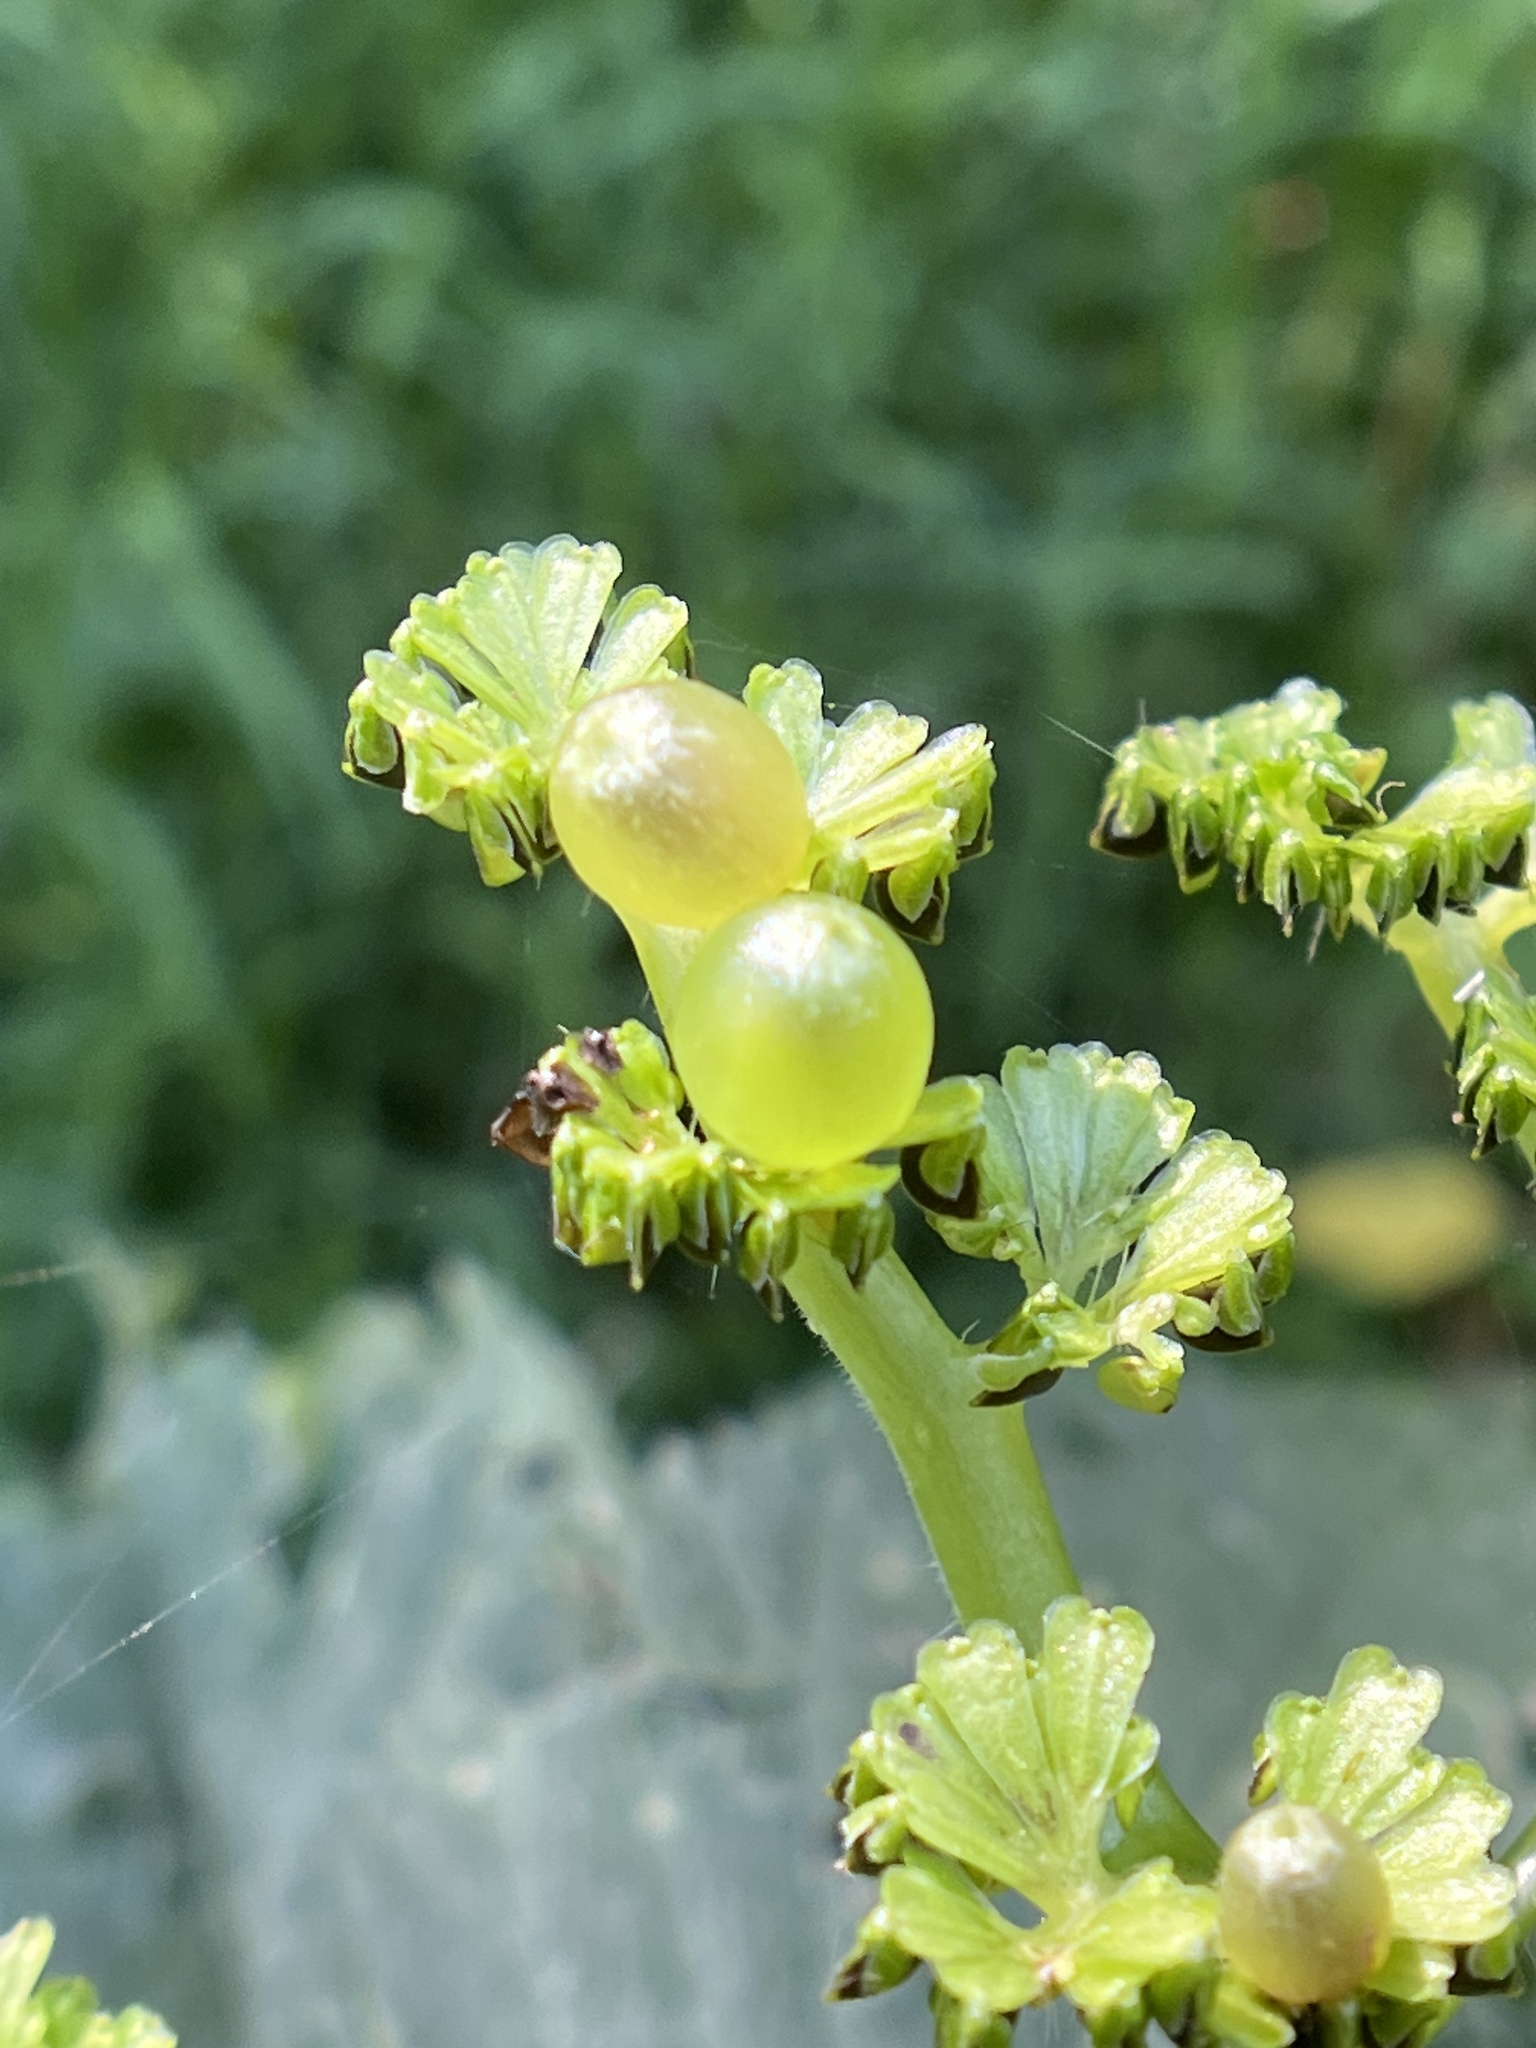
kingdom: Animalia
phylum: Arthropoda
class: Insecta
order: Diptera
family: Cecidomyiidae
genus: Dasineura
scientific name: Dasineura investita
